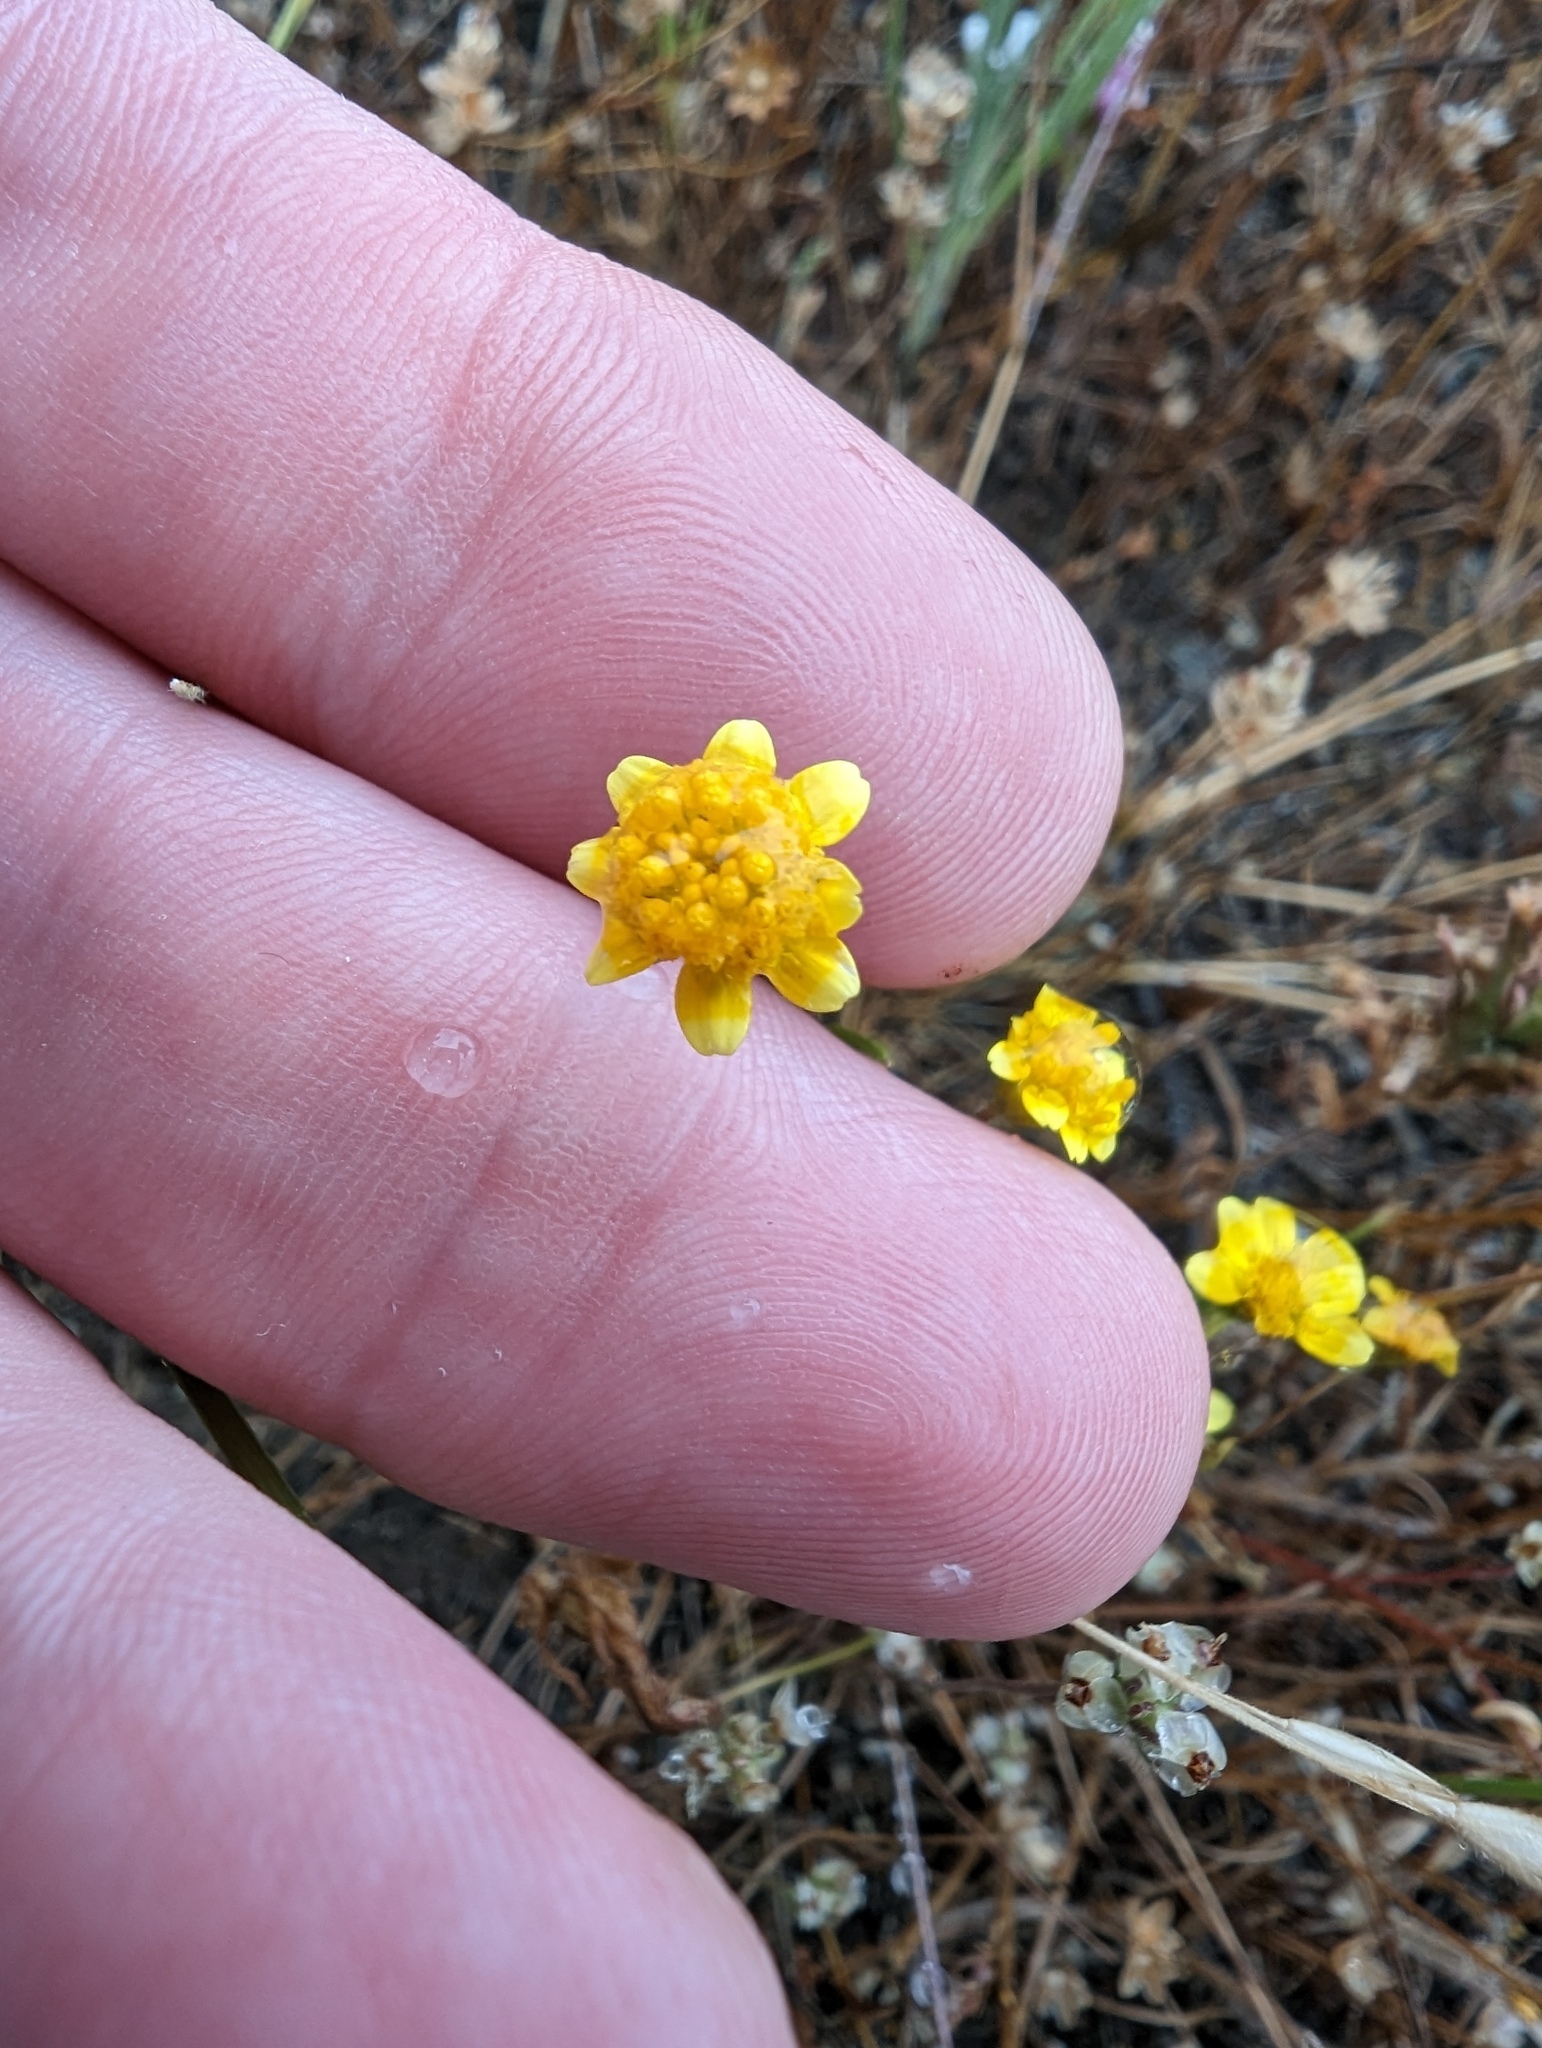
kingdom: Plantae
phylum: Tracheophyta
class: Magnoliopsida
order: Asterales
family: Asteraceae
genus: Lasthenia
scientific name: Lasthenia gracilis
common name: Common goldfields
